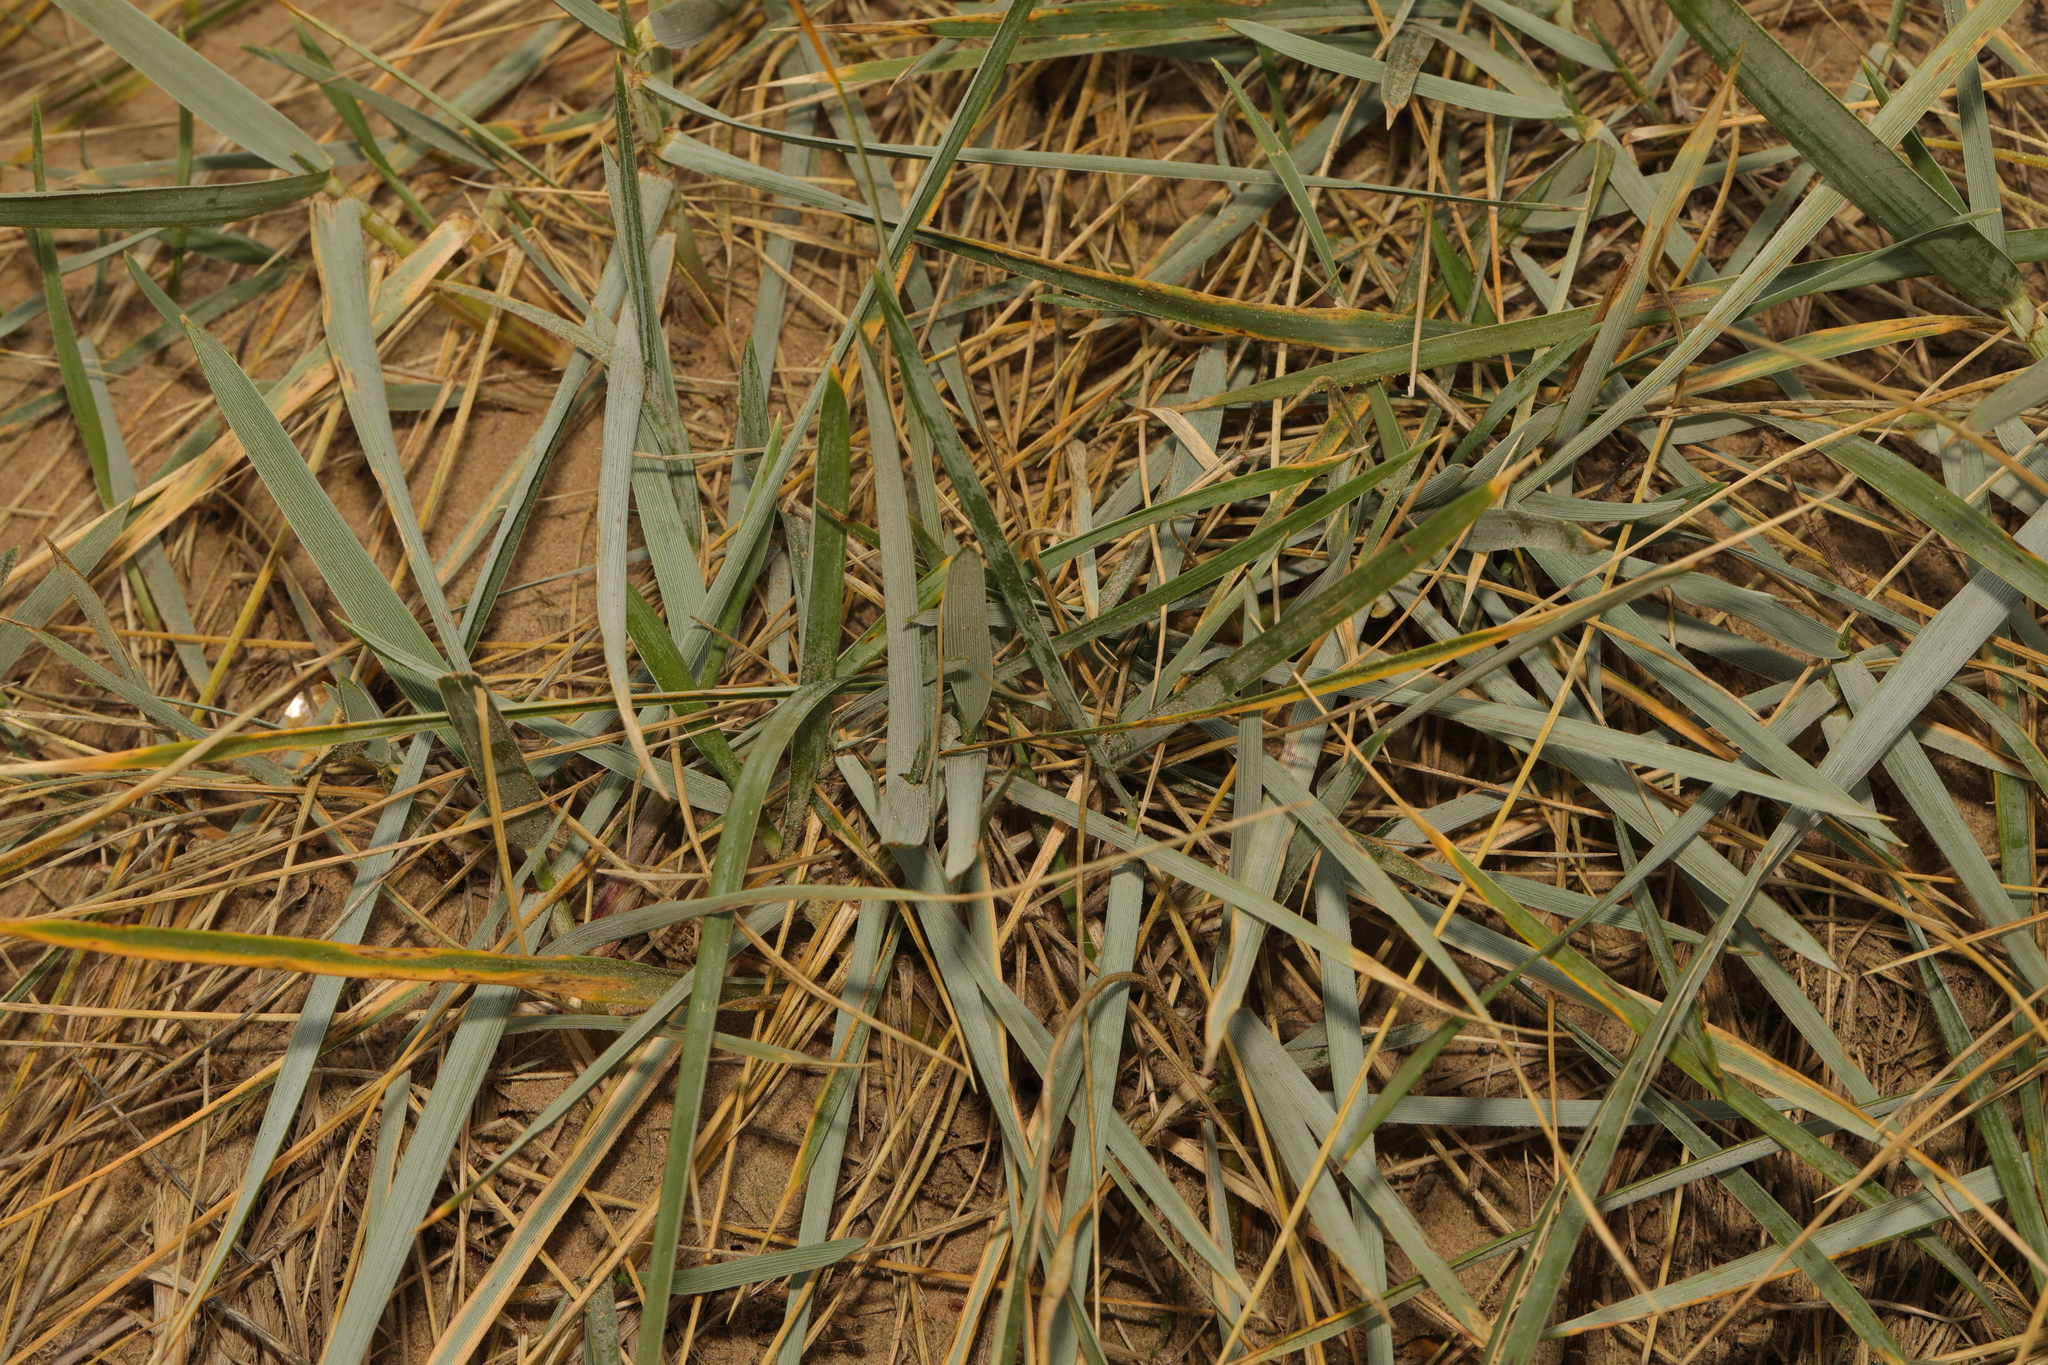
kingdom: Plantae
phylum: Tracheophyta
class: Liliopsida
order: Poales
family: Poaceae
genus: Leymus
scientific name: Leymus arenarius
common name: Lyme-grass
